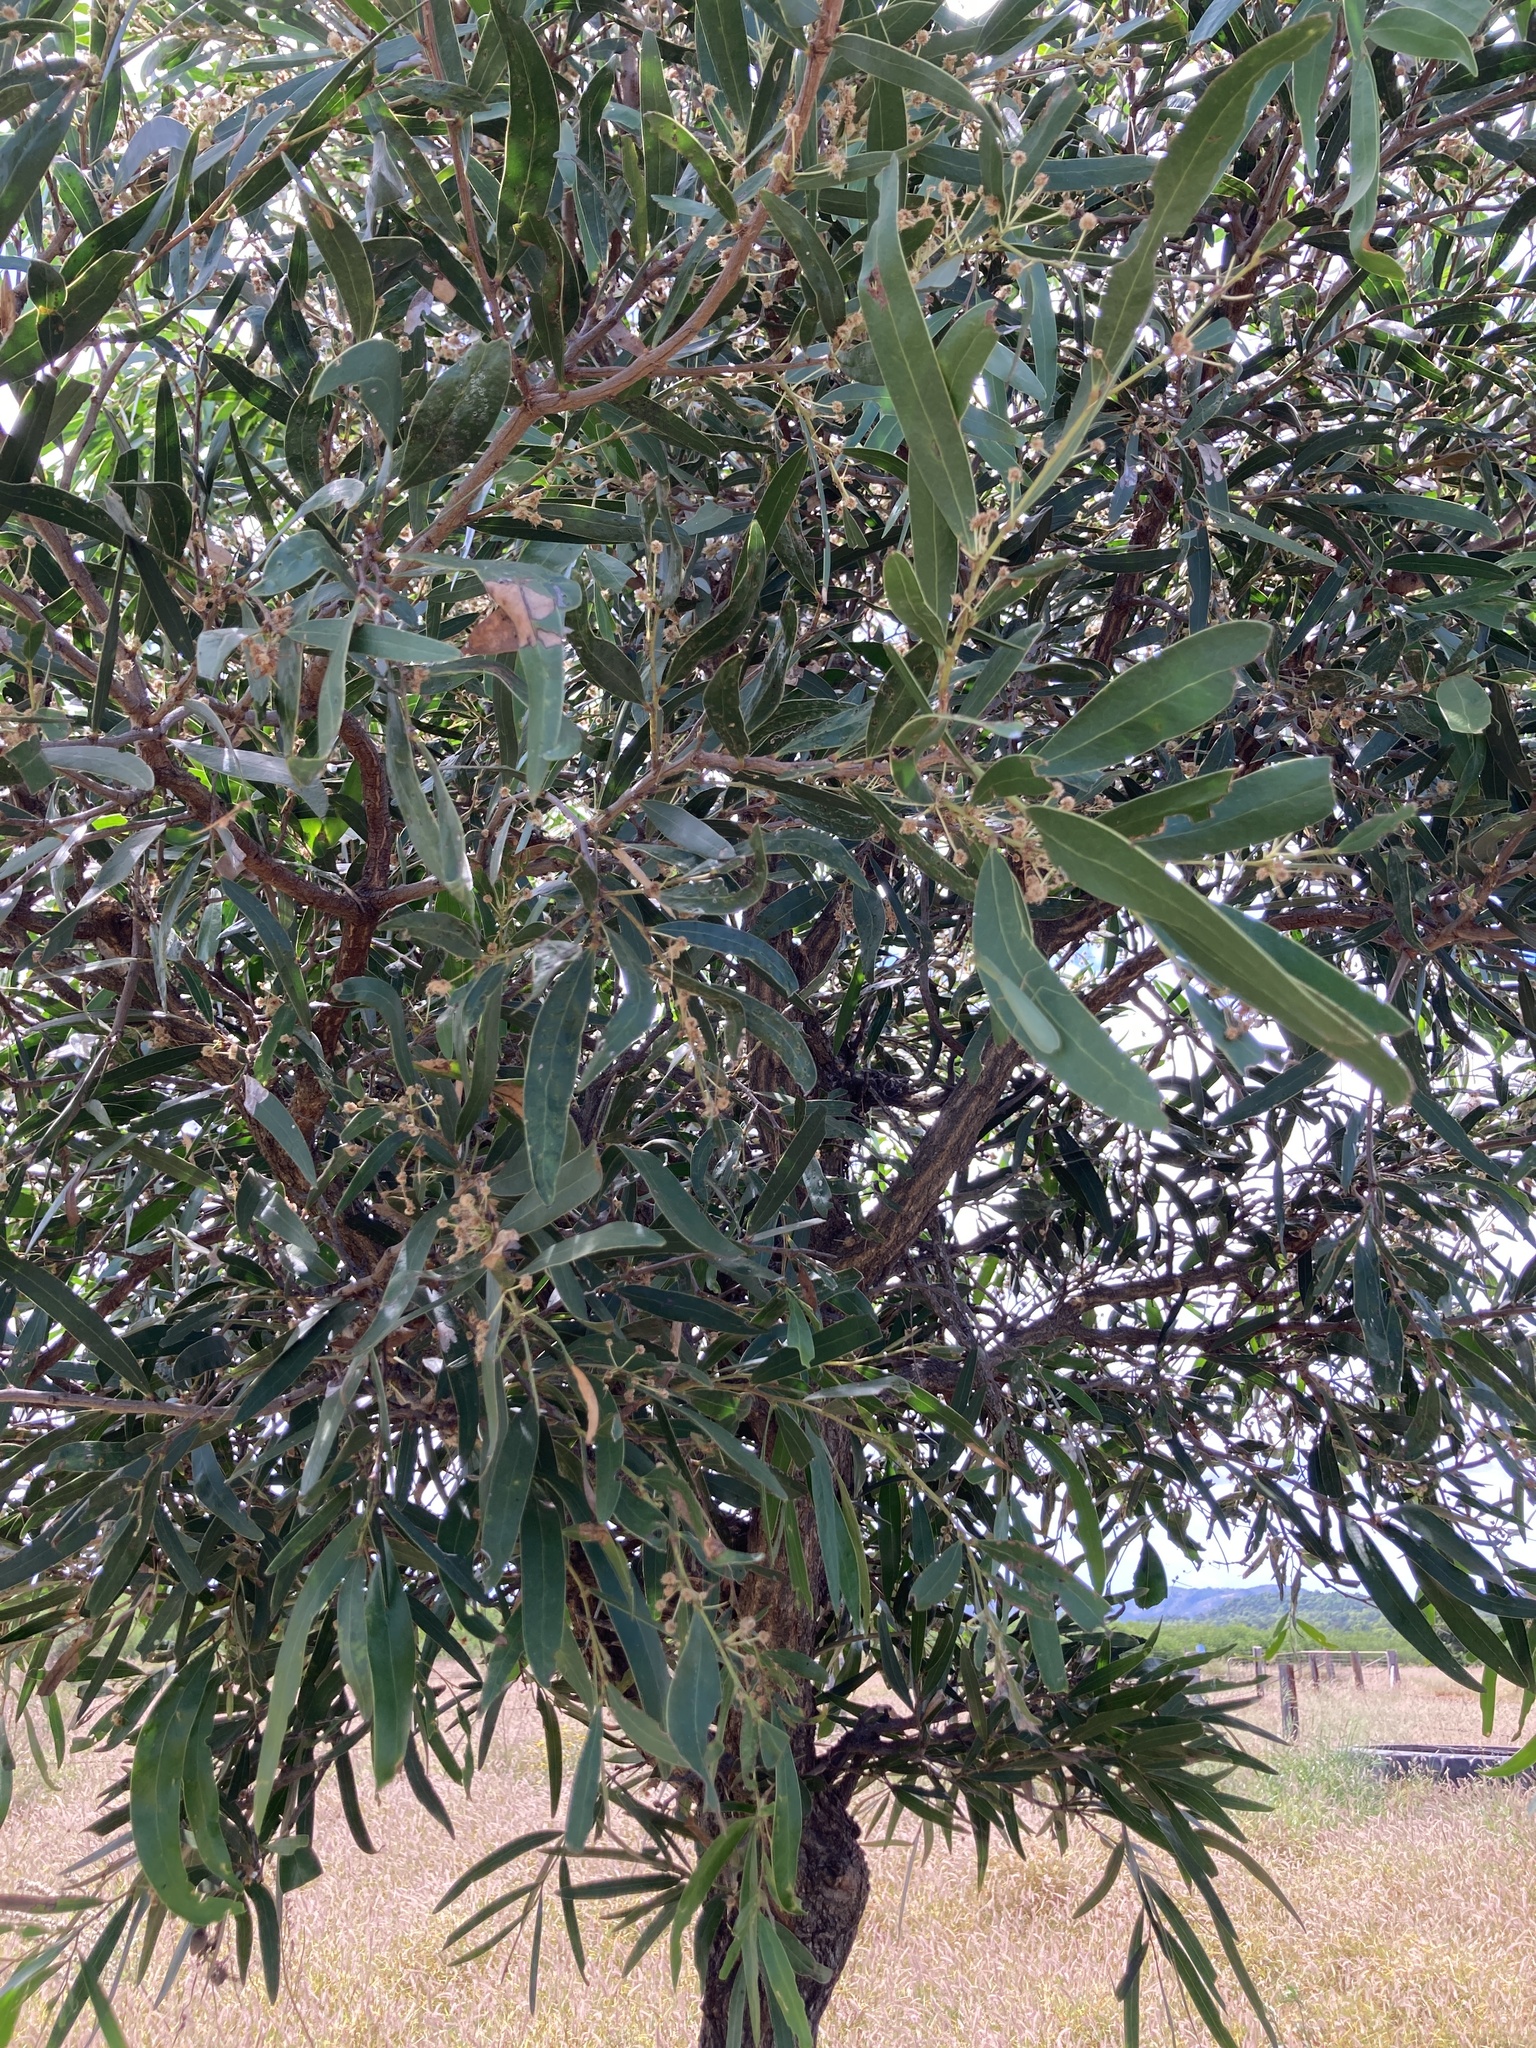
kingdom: Plantae
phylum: Tracheophyta
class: Magnoliopsida
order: Fabales
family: Fabaceae
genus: Acacia
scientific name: Acacia fasciculifera
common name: Scalybark
